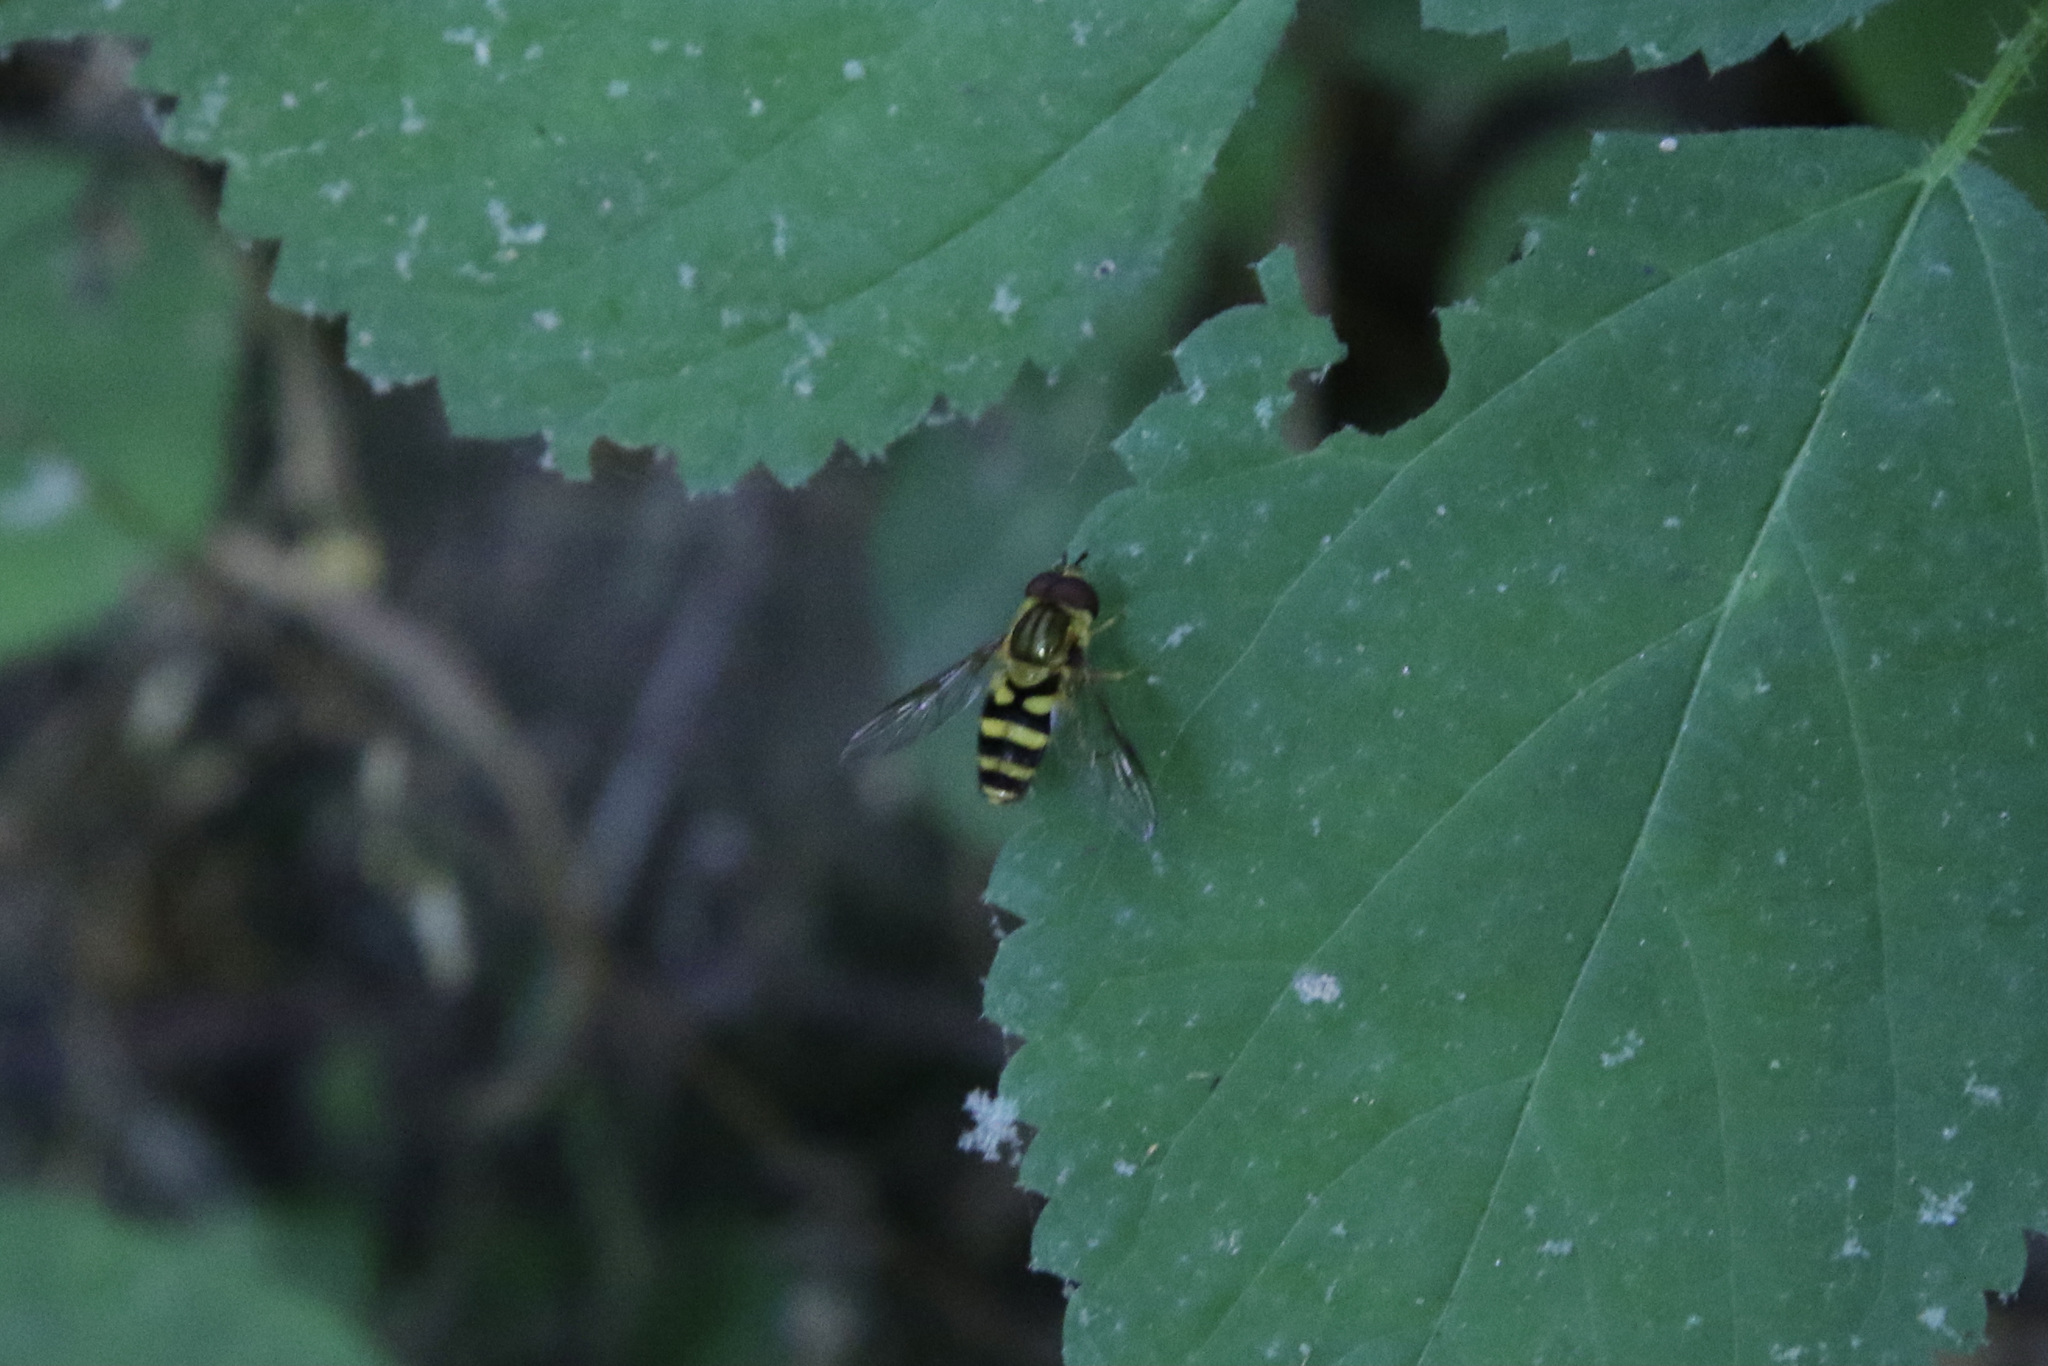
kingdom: Animalia
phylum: Arthropoda
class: Insecta
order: Diptera
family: Syrphidae
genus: Syrphus
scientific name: Syrphus
